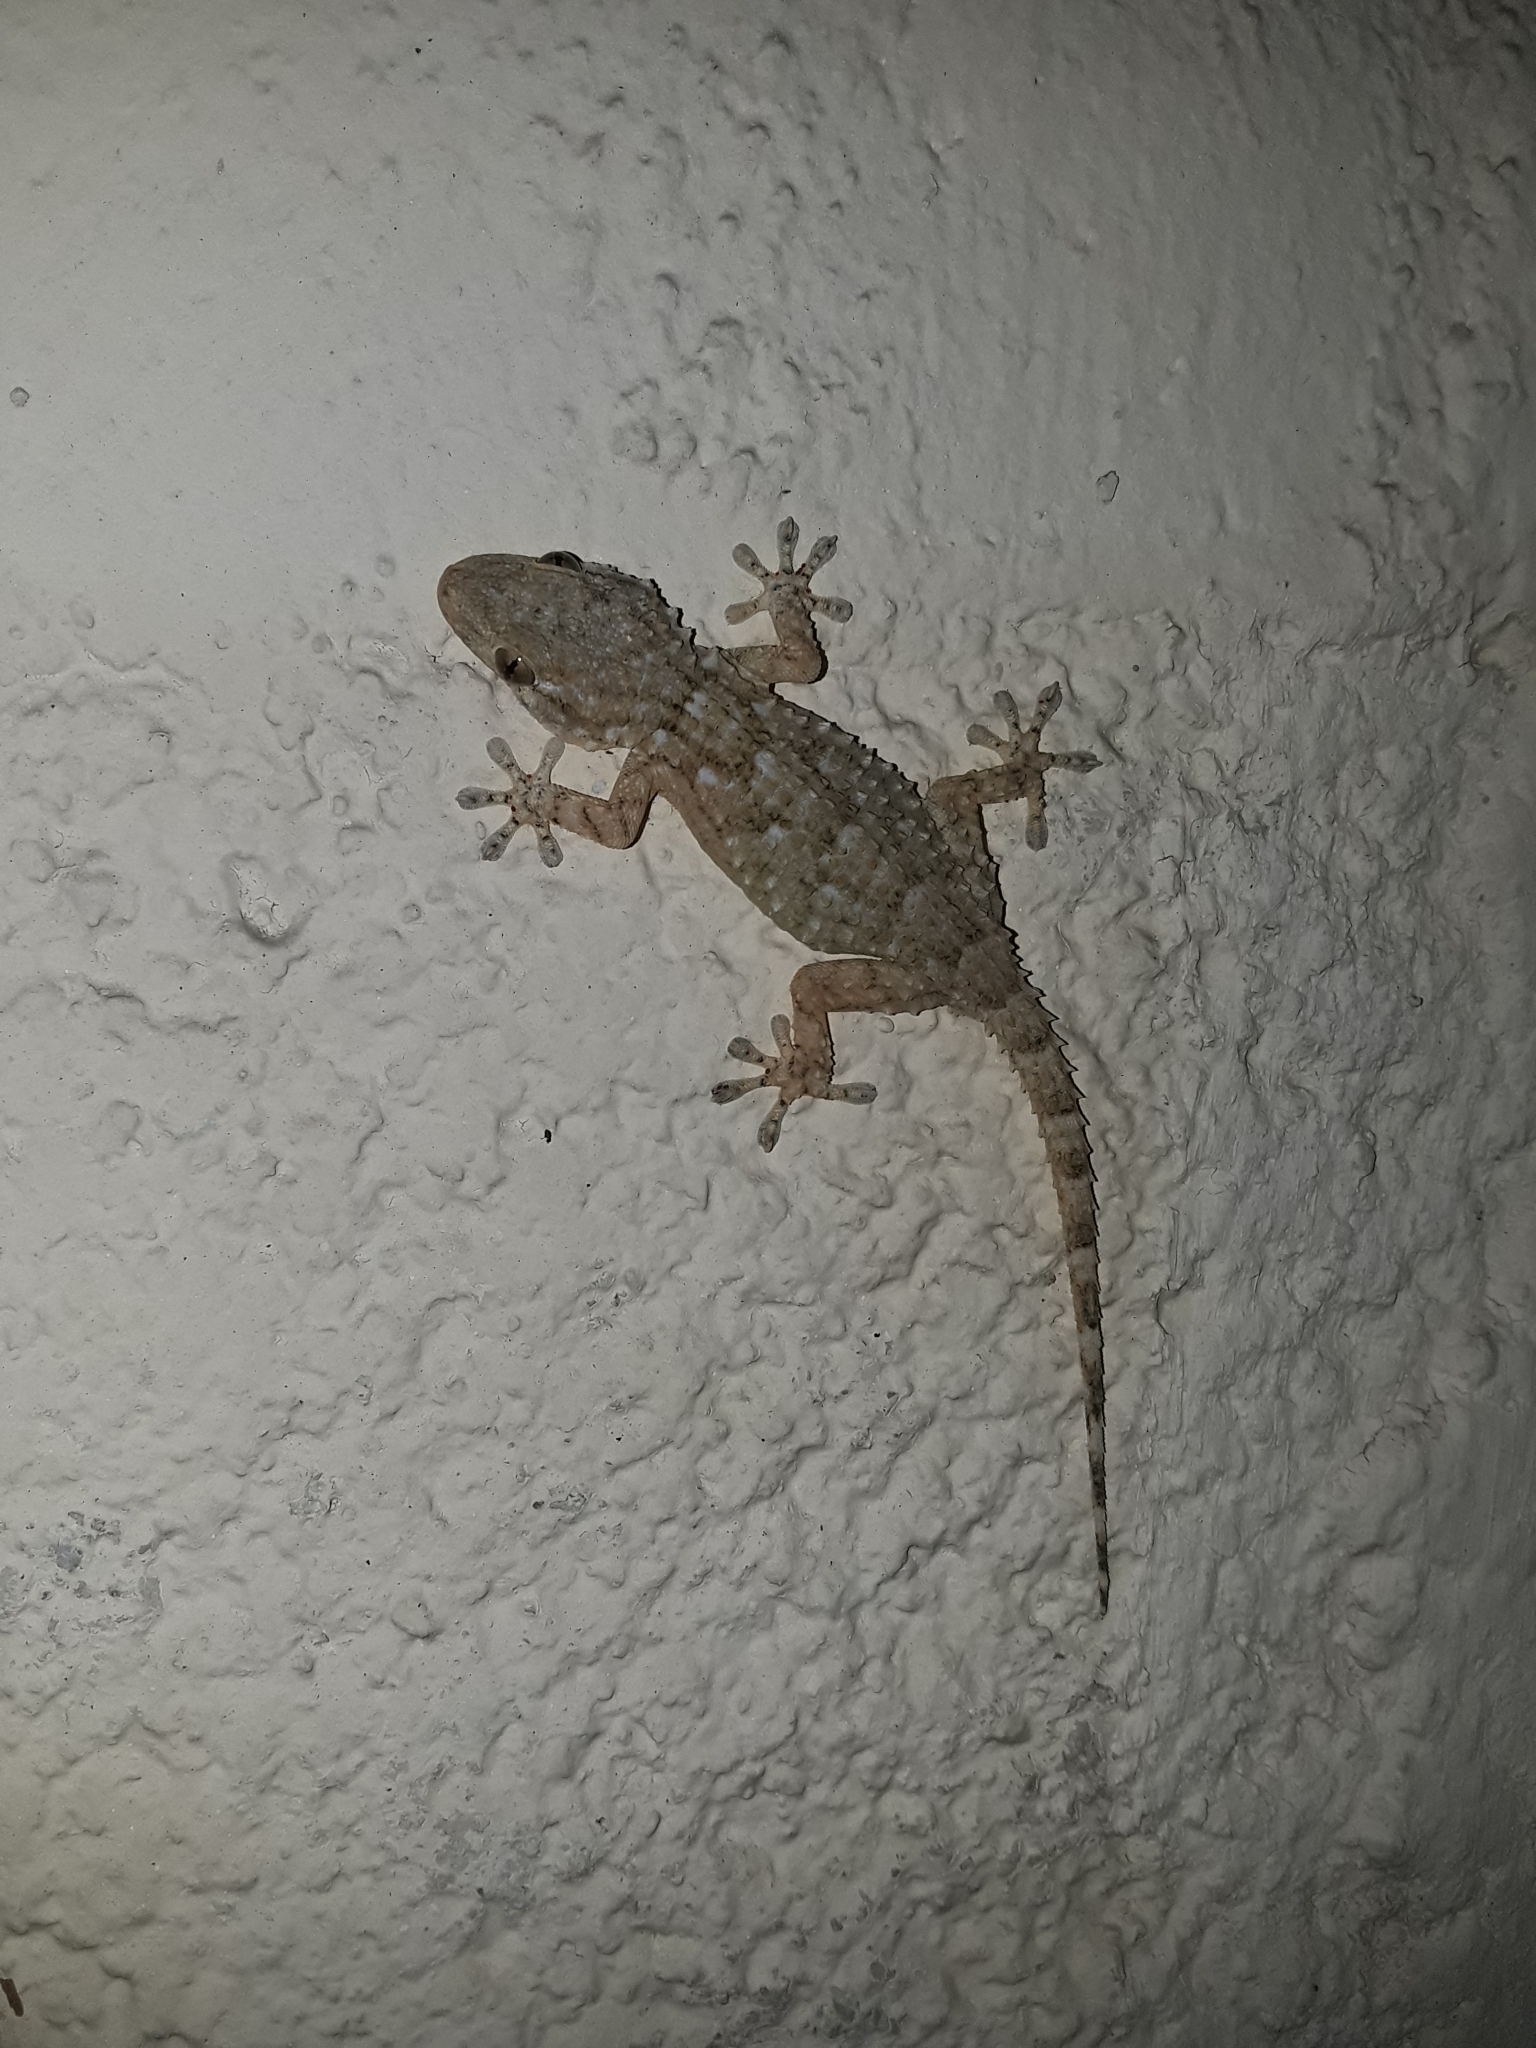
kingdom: Animalia
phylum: Chordata
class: Squamata
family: Phyllodactylidae
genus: Tarentola
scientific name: Tarentola mauritanica
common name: Moorish gecko
